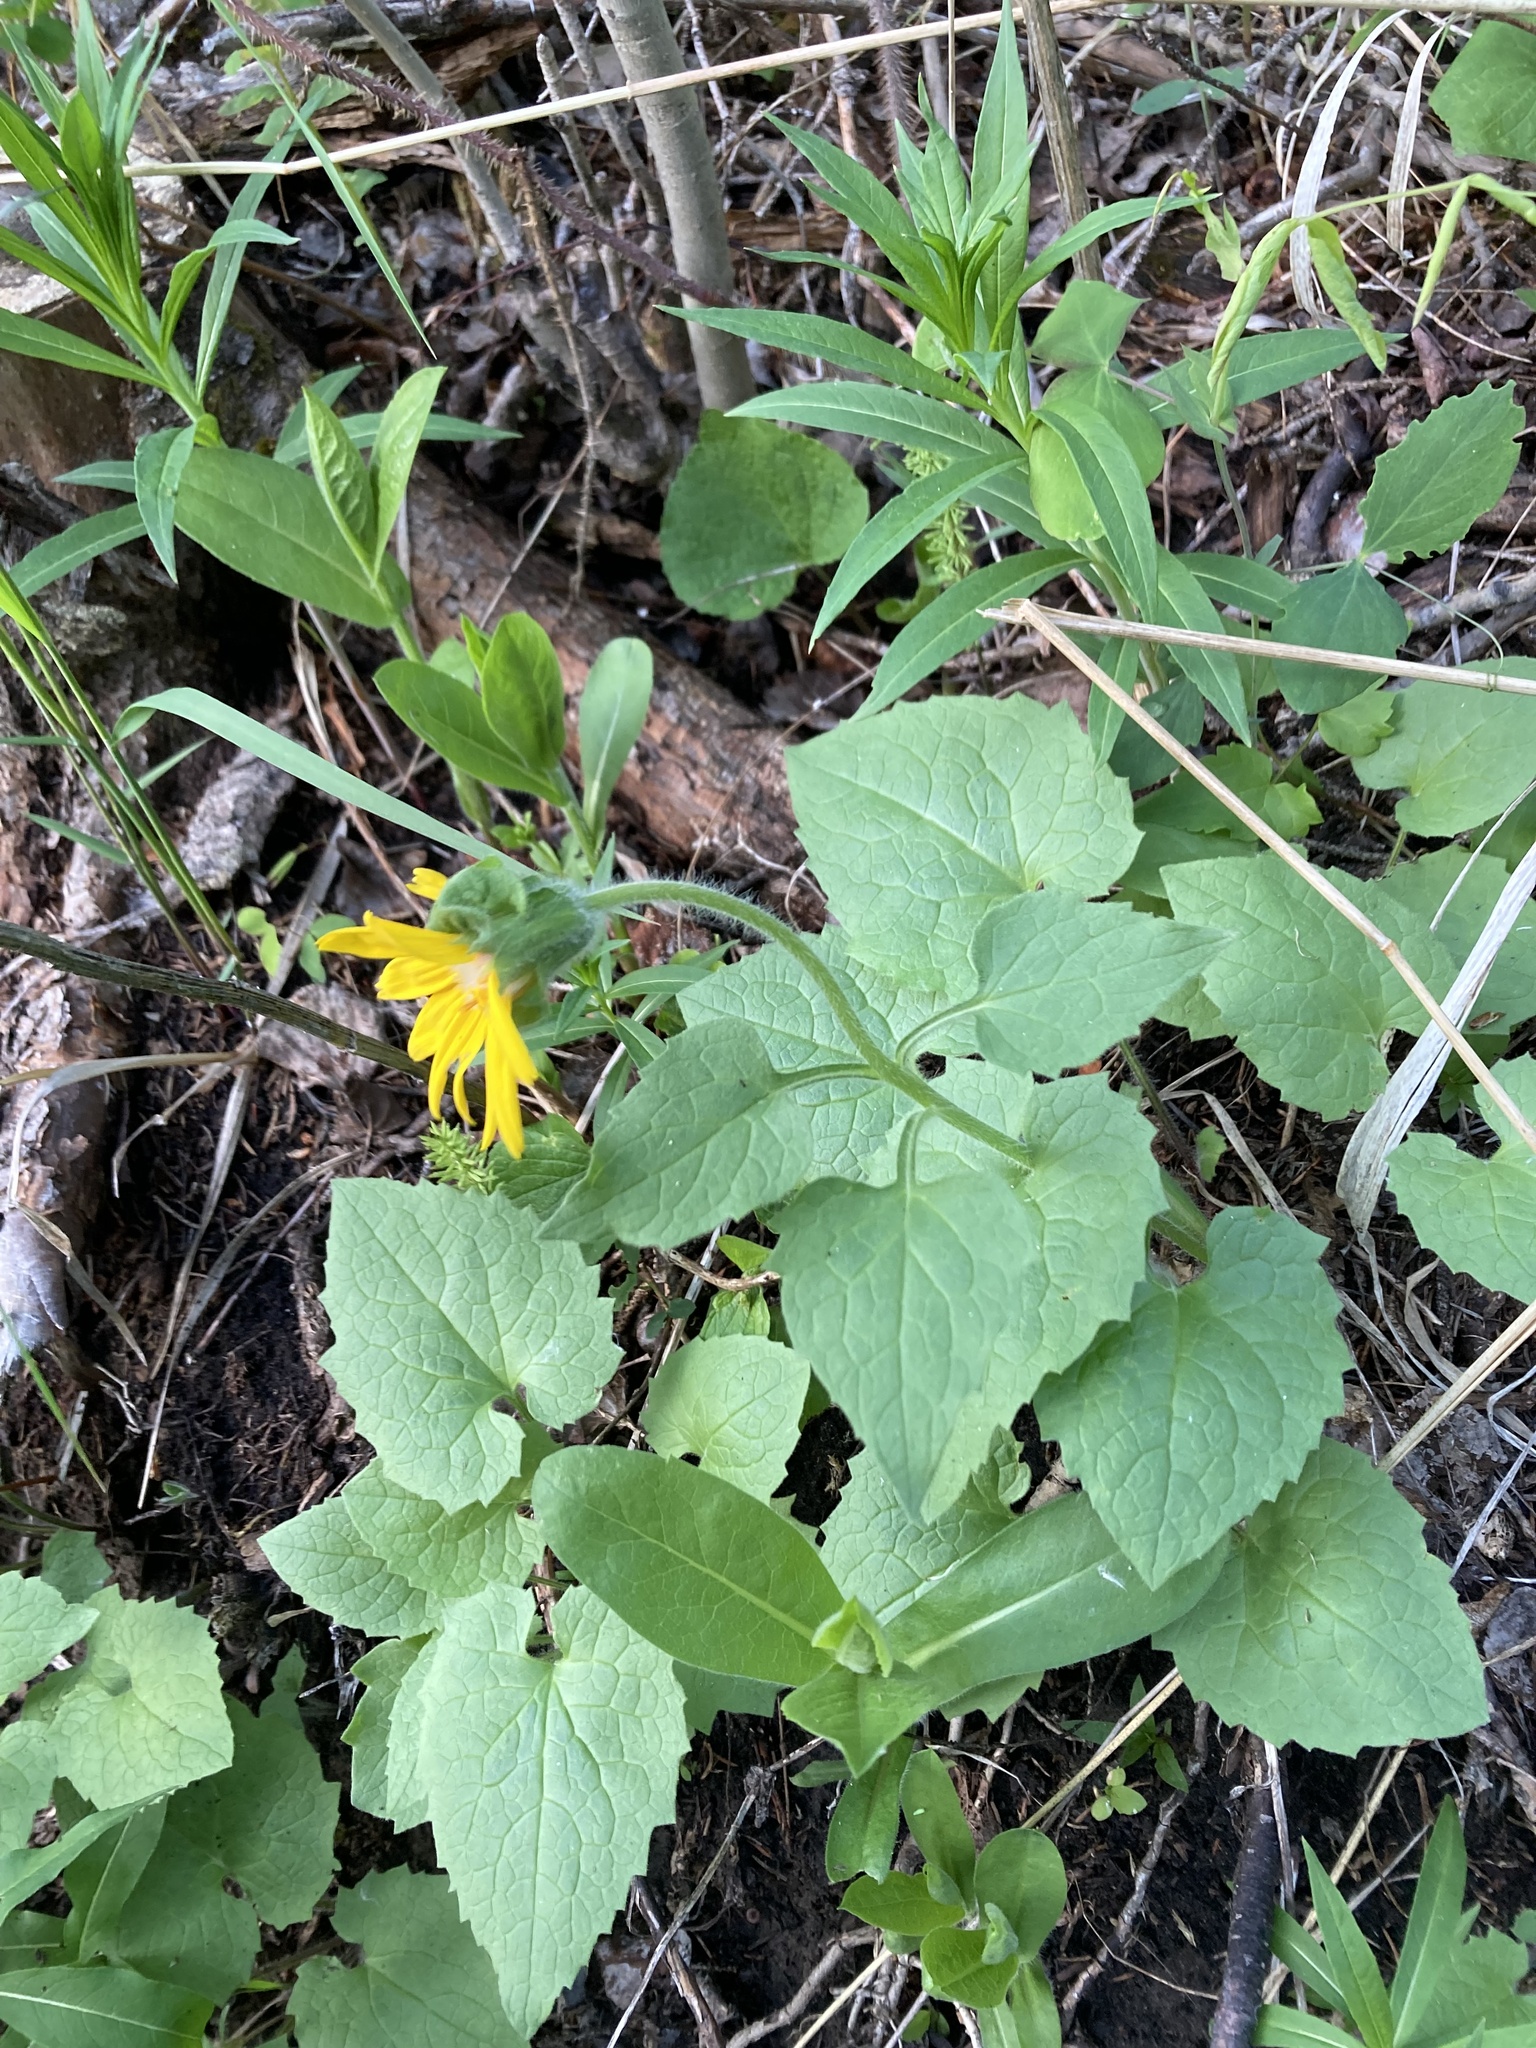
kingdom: Plantae
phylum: Tracheophyta
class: Magnoliopsida
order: Asterales
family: Asteraceae
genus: Arnica
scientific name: Arnica cordifolia
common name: Heart-leaf arnica
